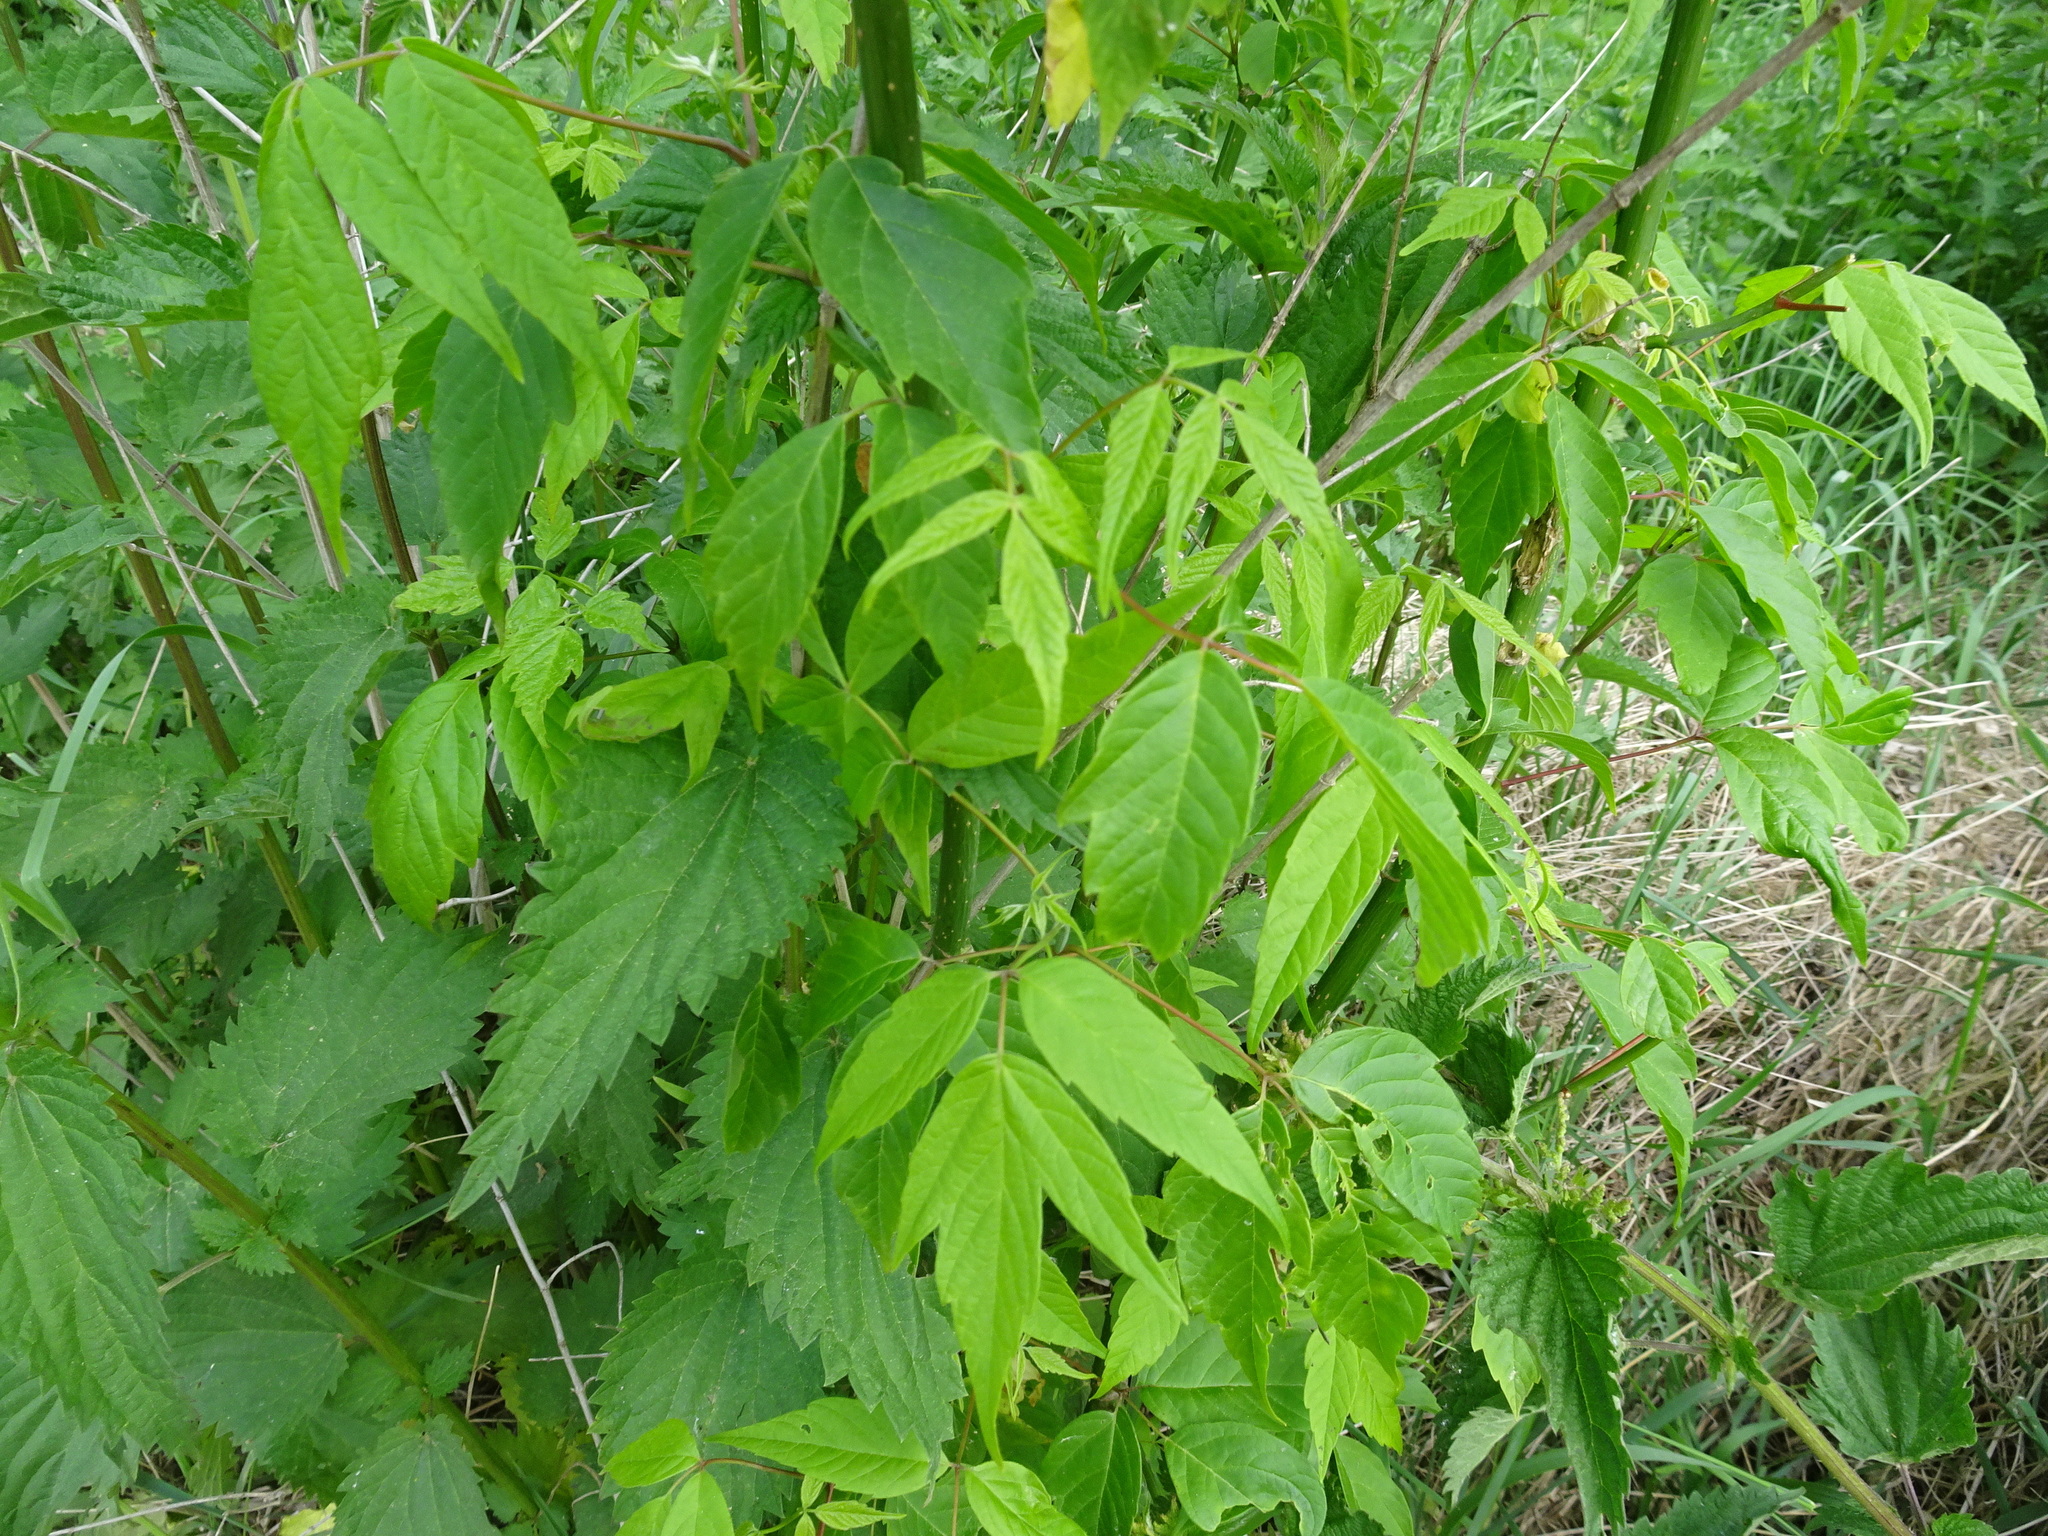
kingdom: Plantae
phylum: Tracheophyta
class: Magnoliopsida
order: Sapindales
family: Sapindaceae
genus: Acer
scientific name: Acer negundo
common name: Ashleaf maple
